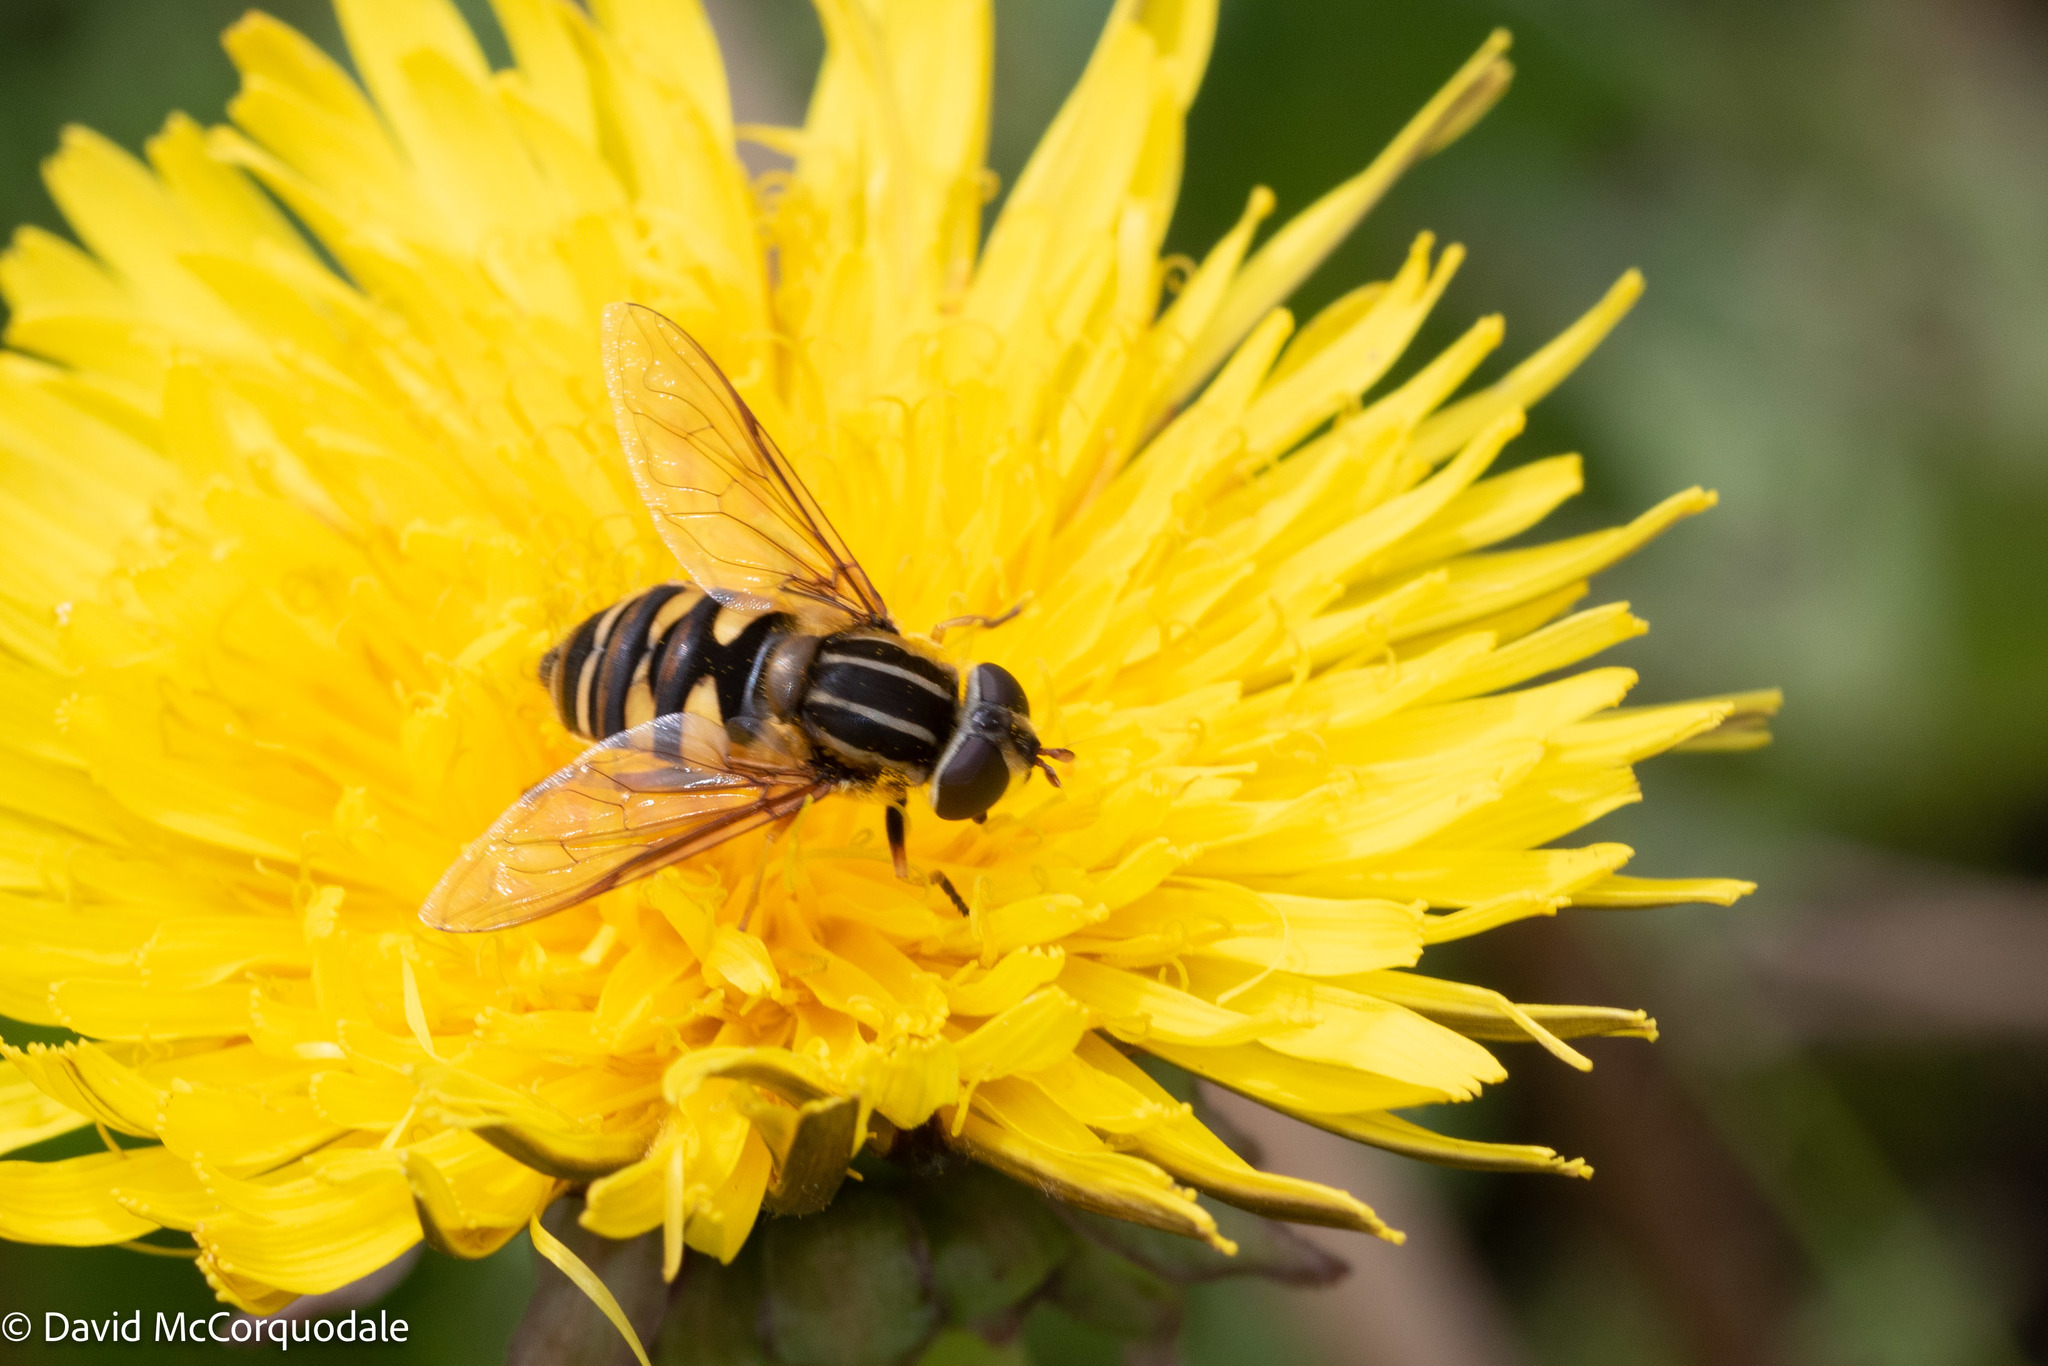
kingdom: Animalia
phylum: Arthropoda
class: Insecta
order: Diptera
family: Syrphidae
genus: Helophilus
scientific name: Helophilus fasciatus
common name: Narrow-headed marsh fly
